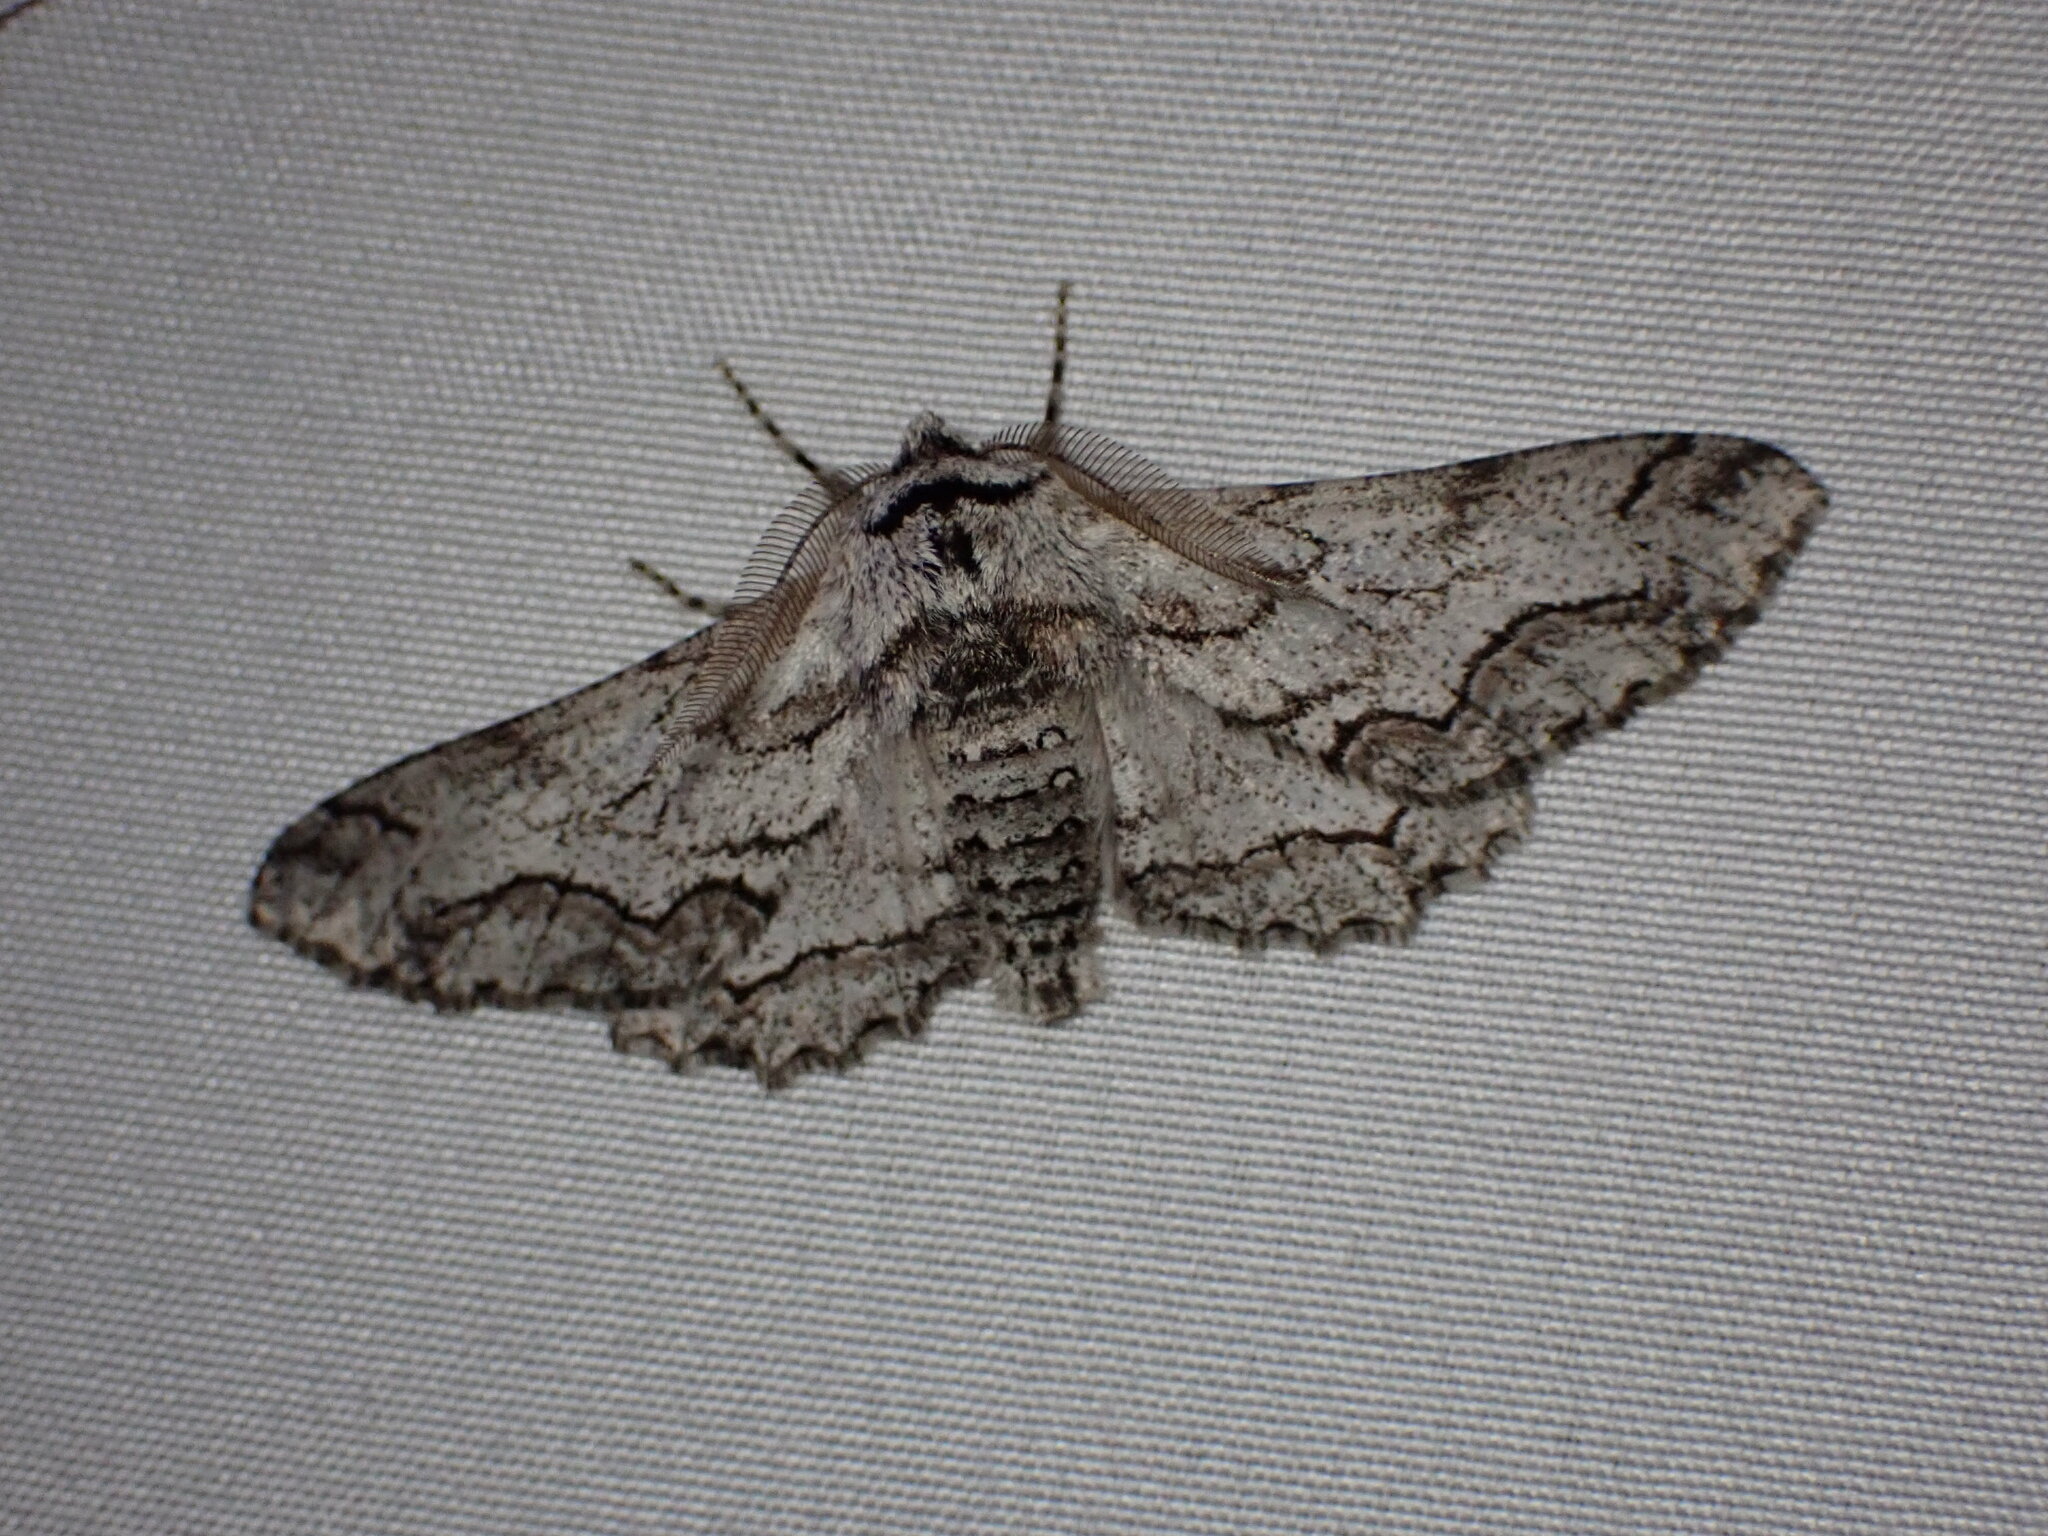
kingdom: Animalia
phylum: Arthropoda
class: Insecta
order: Lepidoptera
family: Geometridae
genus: Biston
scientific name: Biston sinuata
